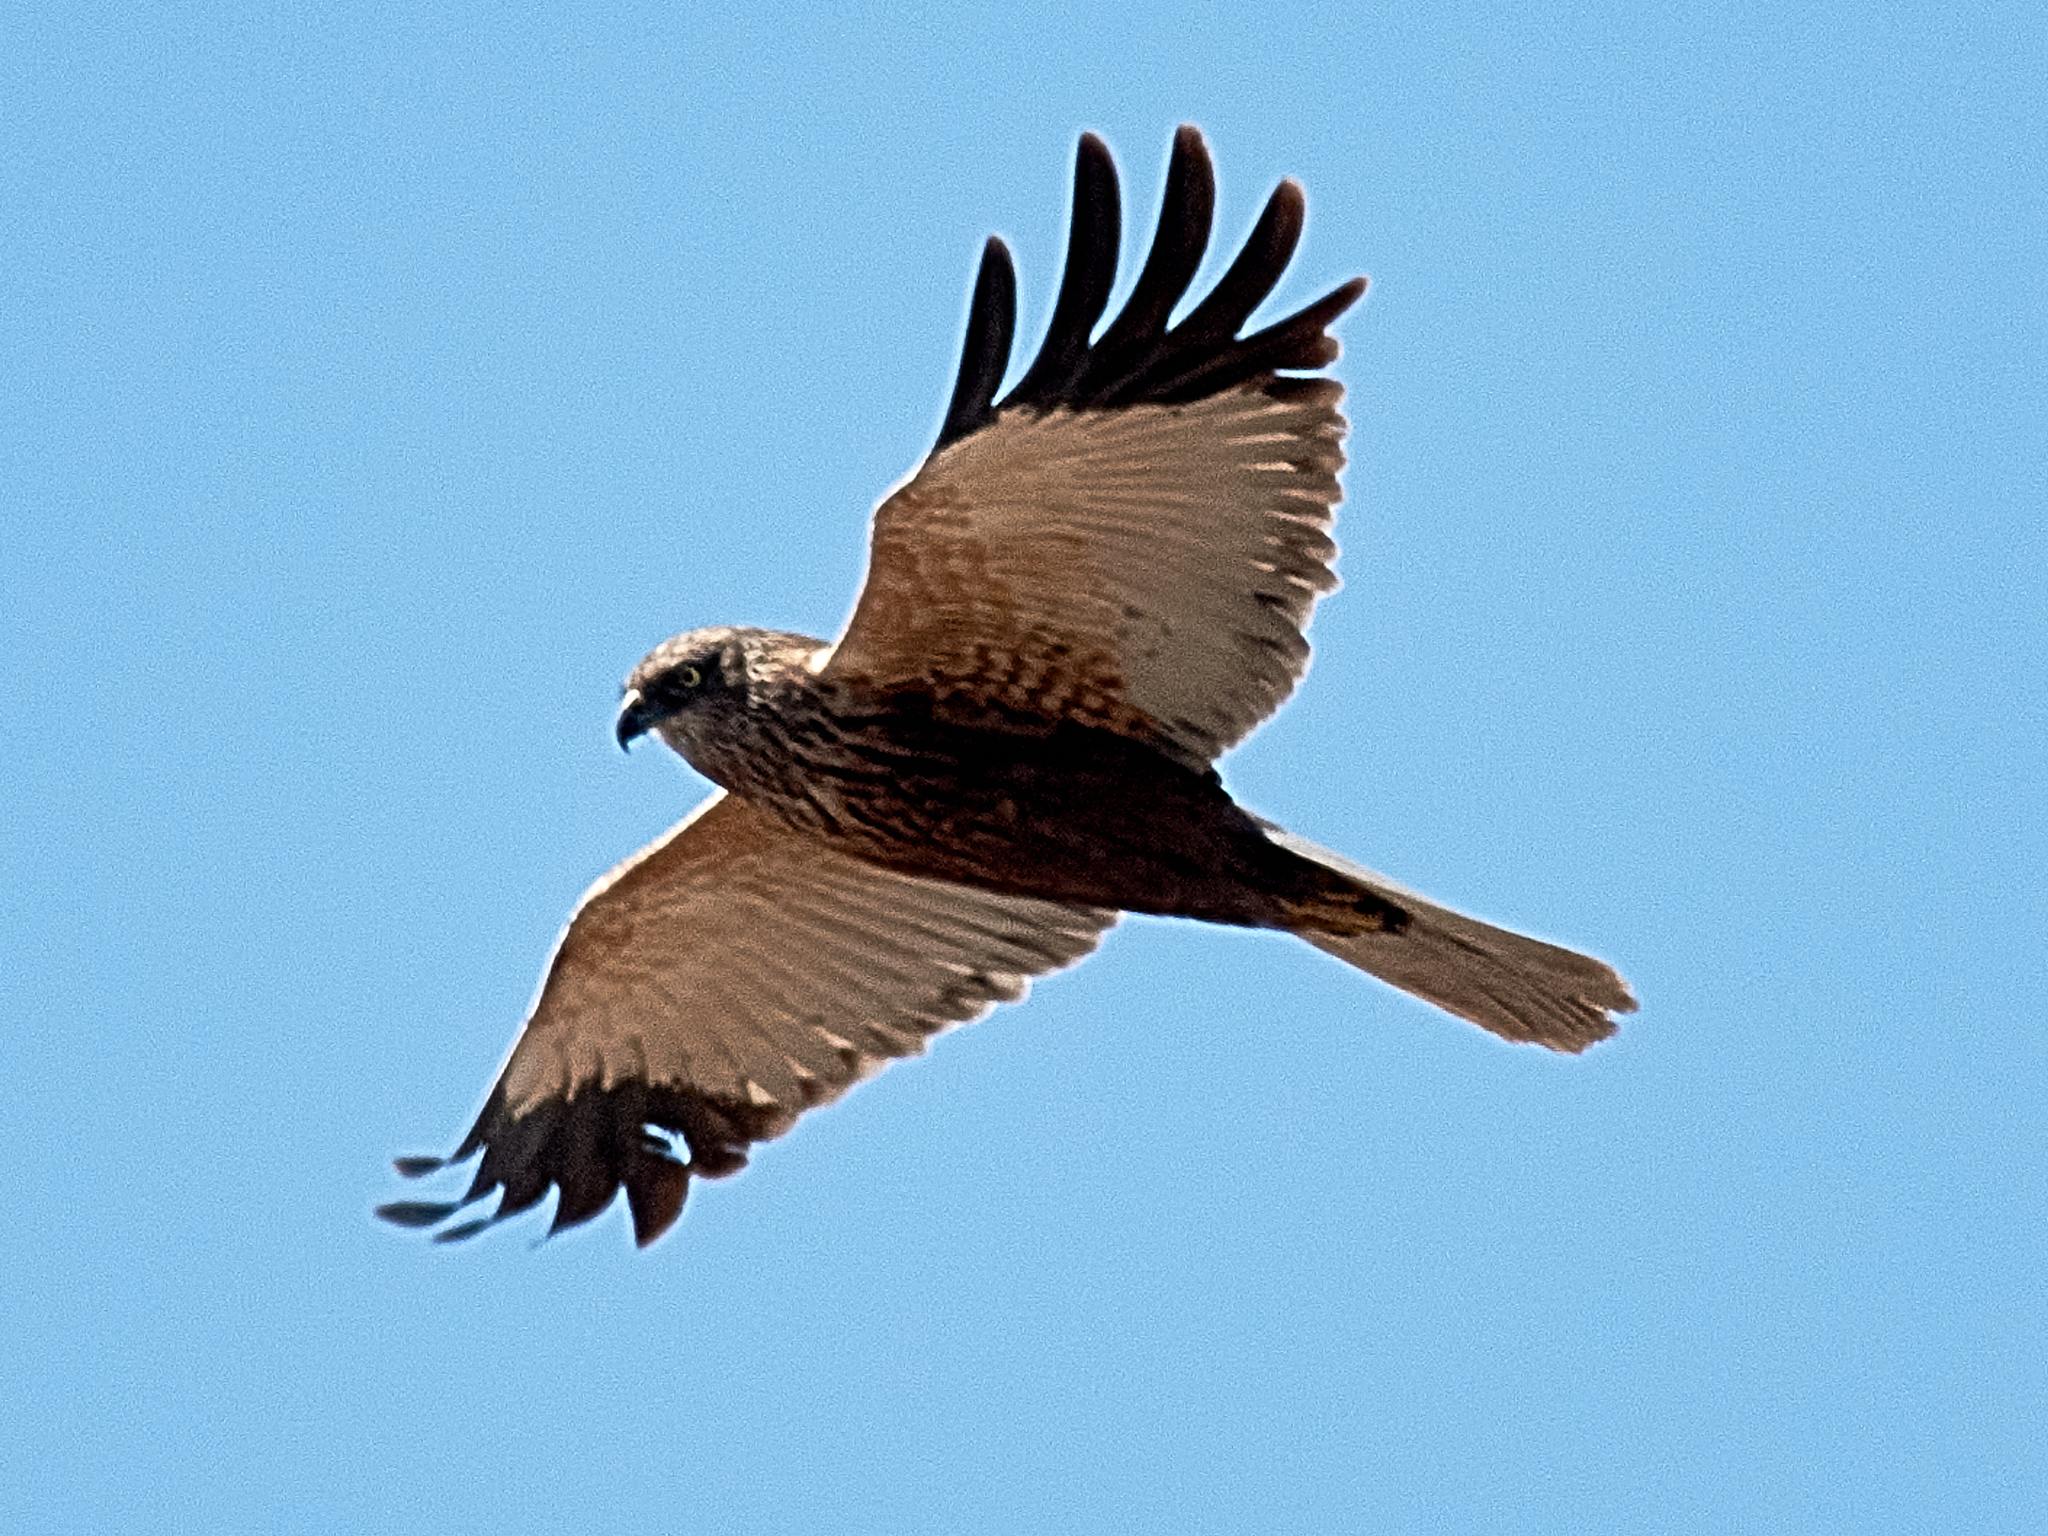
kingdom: Animalia
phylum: Chordata
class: Aves
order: Accipitriformes
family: Accipitridae
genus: Circus
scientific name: Circus aeruginosus
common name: Western marsh harrier
